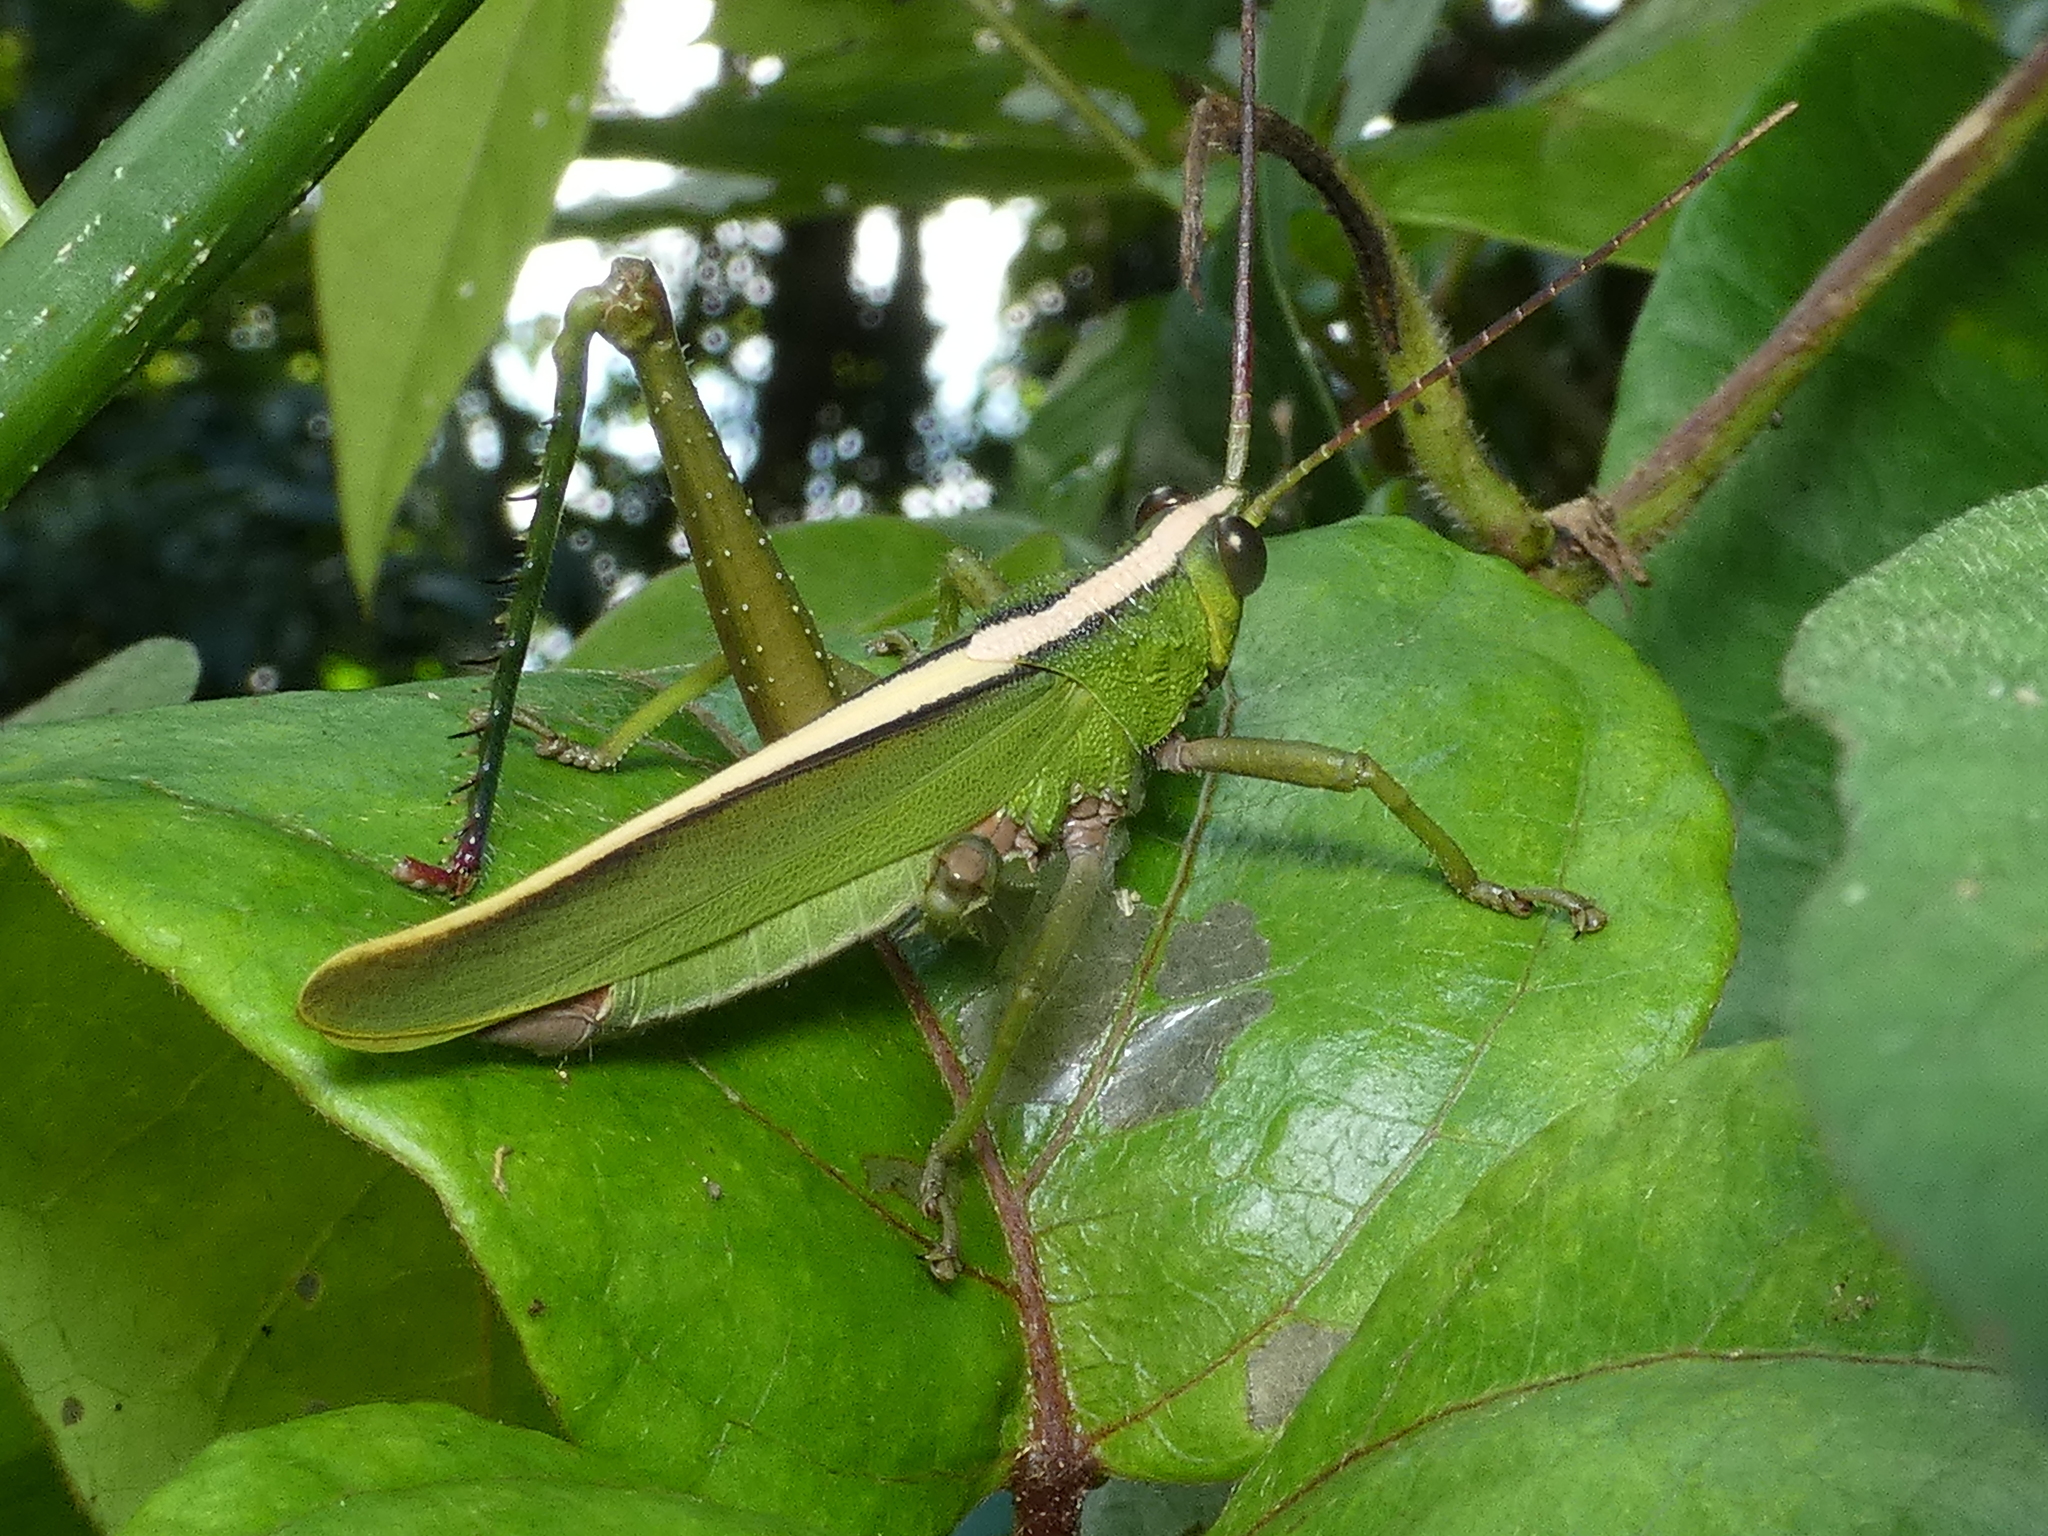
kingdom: Animalia
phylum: Arthropoda
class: Insecta
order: Orthoptera
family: Romaleidae
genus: Agriacris
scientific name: Agriacris auripennis
